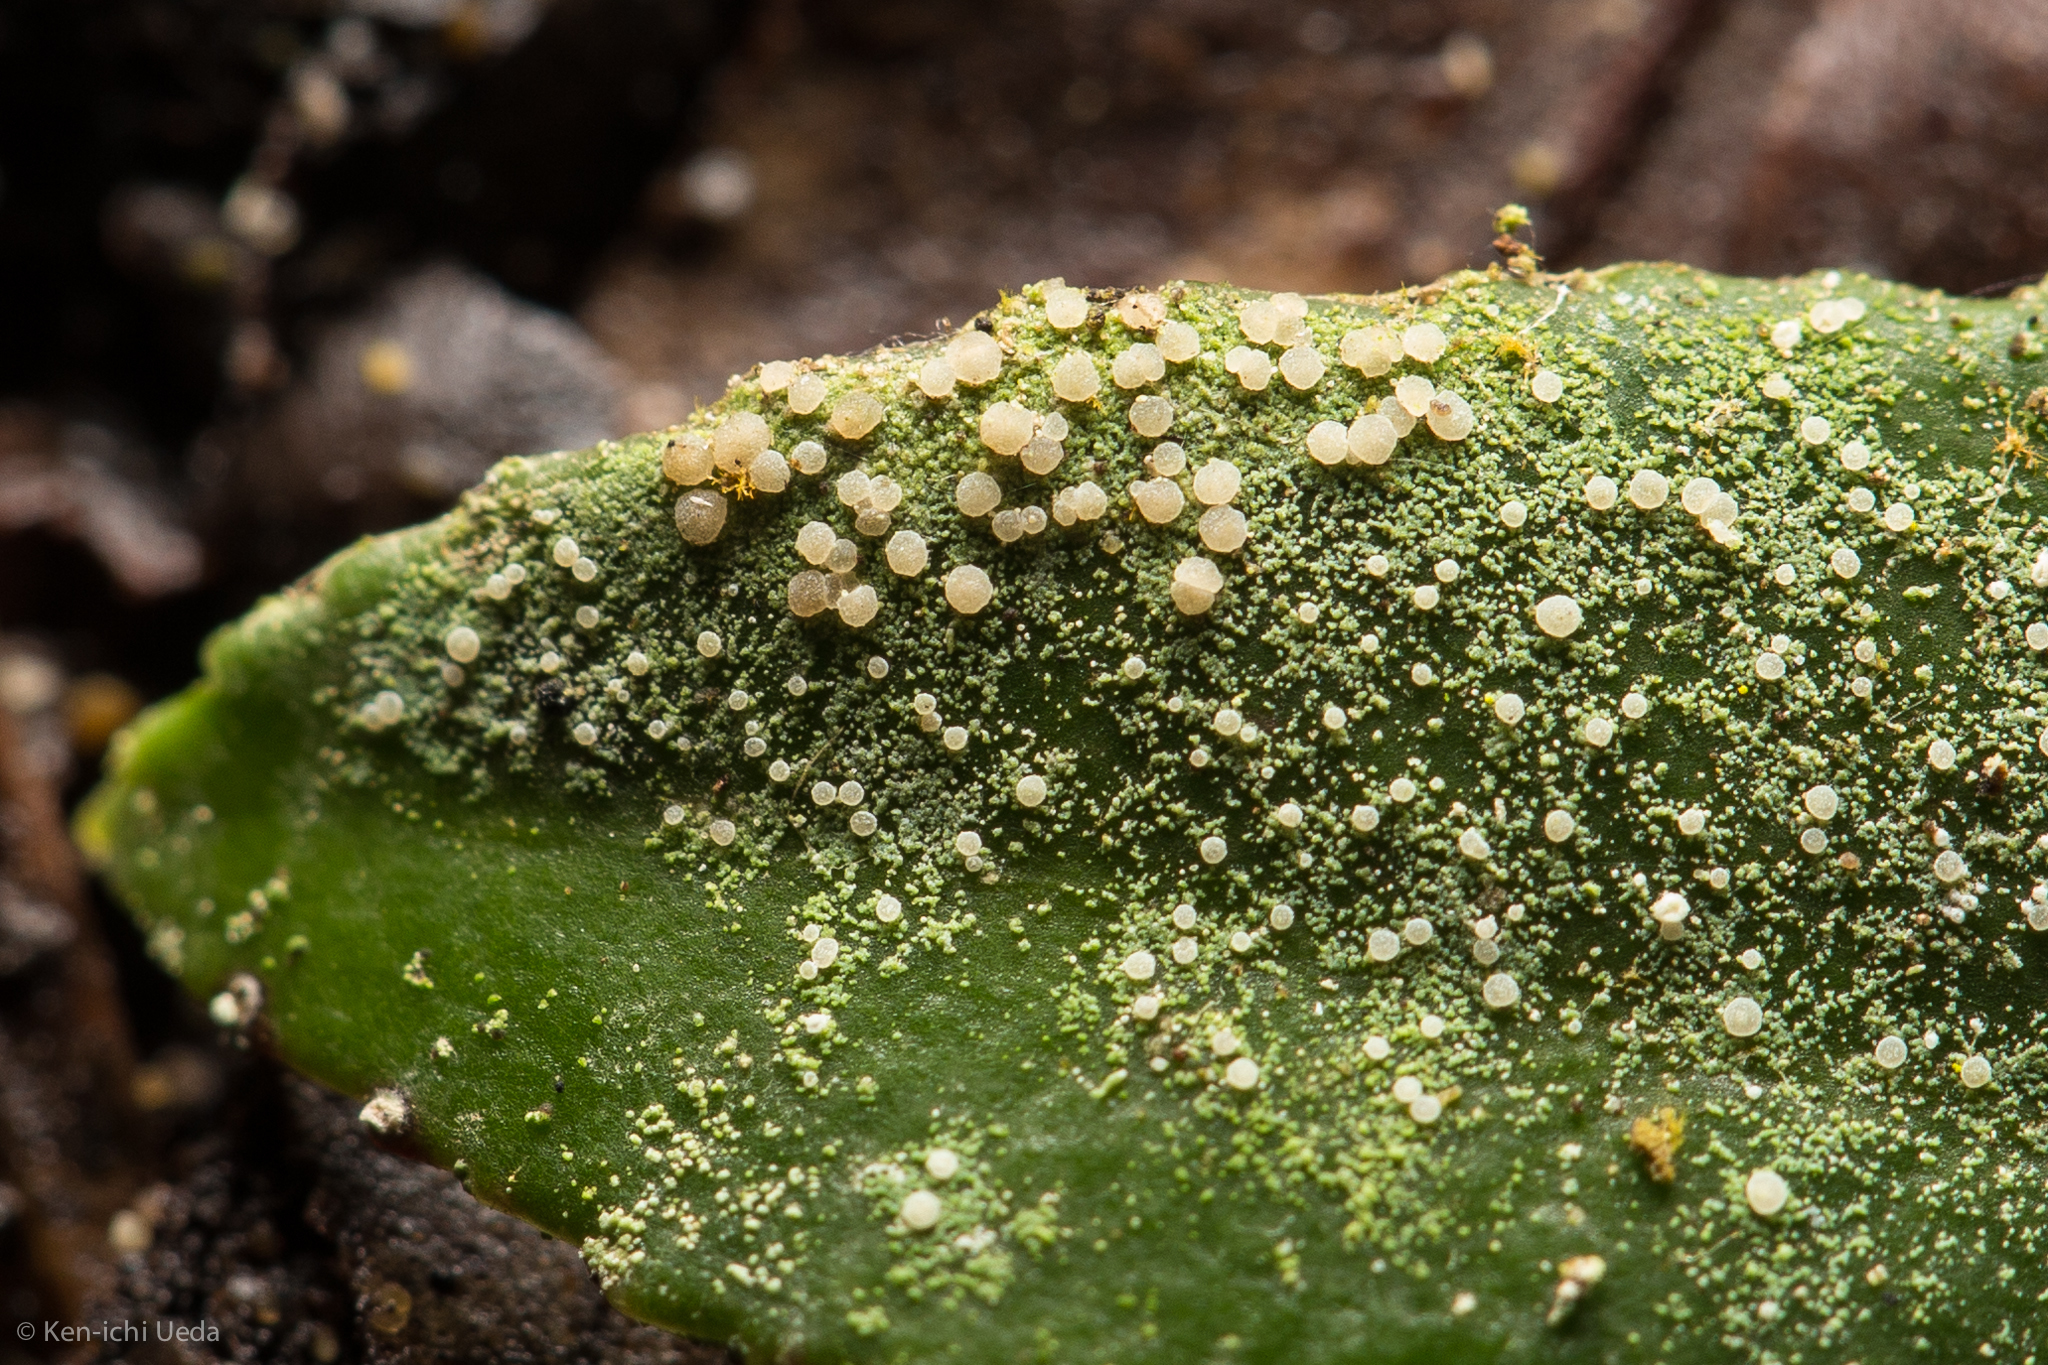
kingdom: Fungi
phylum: Ascomycota
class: Lecanoromycetes
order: Lecanorales
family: Byssolomataceae
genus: Fellhanera
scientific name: Fellhanera bouteillei
